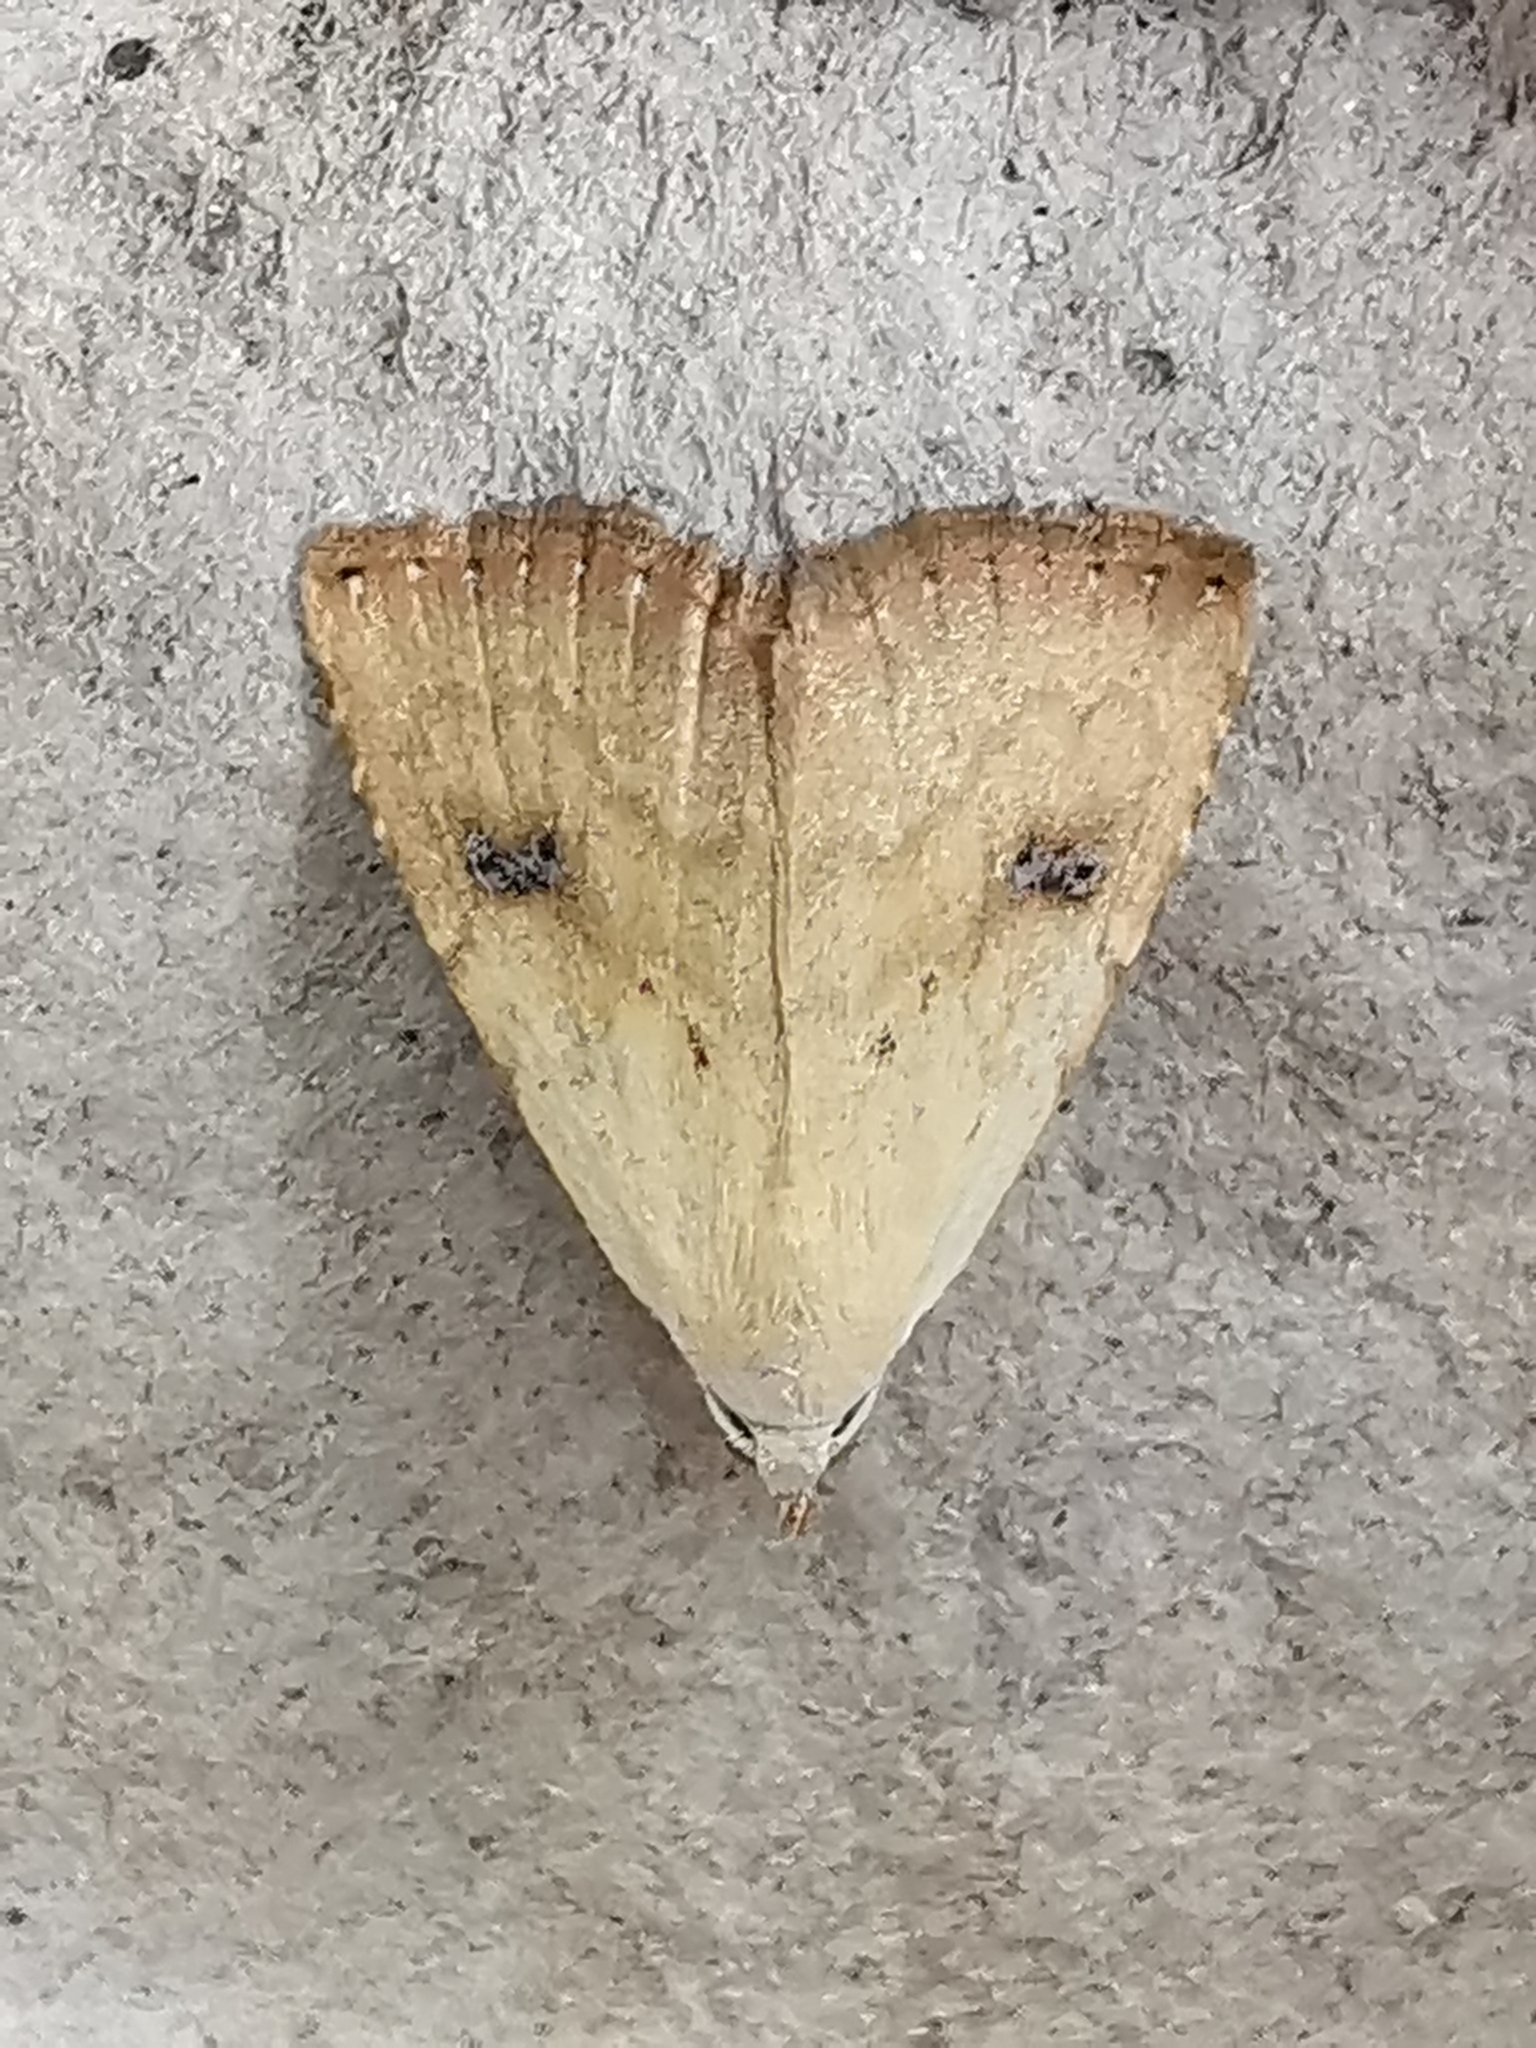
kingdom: Animalia
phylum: Arthropoda
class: Insecta
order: Lepidoptera
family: Erebidae
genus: Rivula
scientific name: Rivula sericealis
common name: Straw dot
